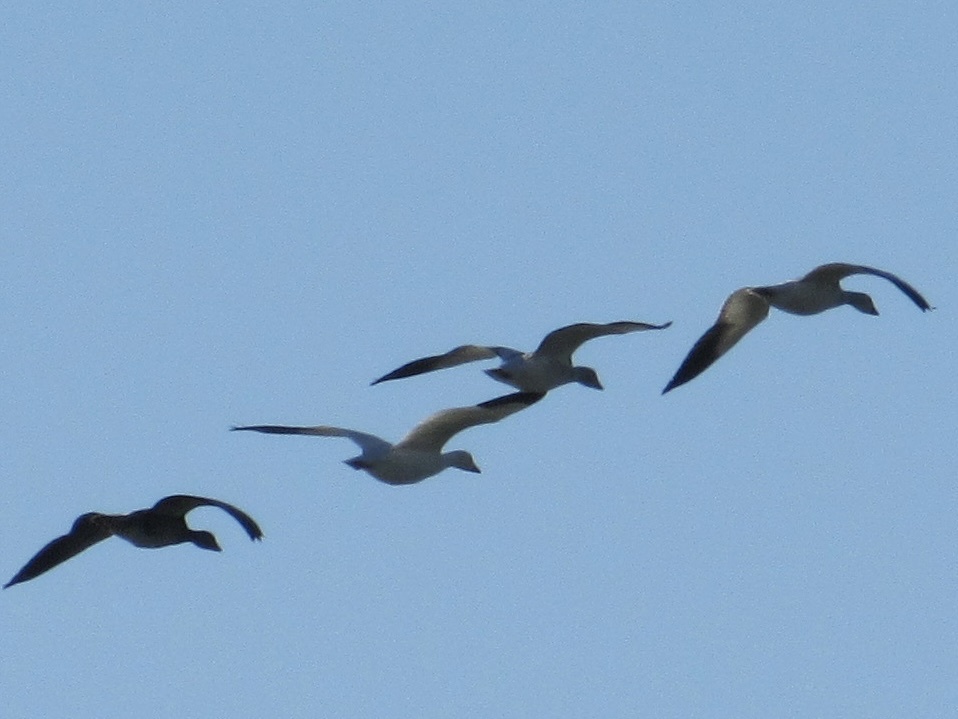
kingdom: Animalia
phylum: Chordata
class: Aves
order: Anseriformes
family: Anatidae
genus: Anser
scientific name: Anser caerulescens
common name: Snow goose
